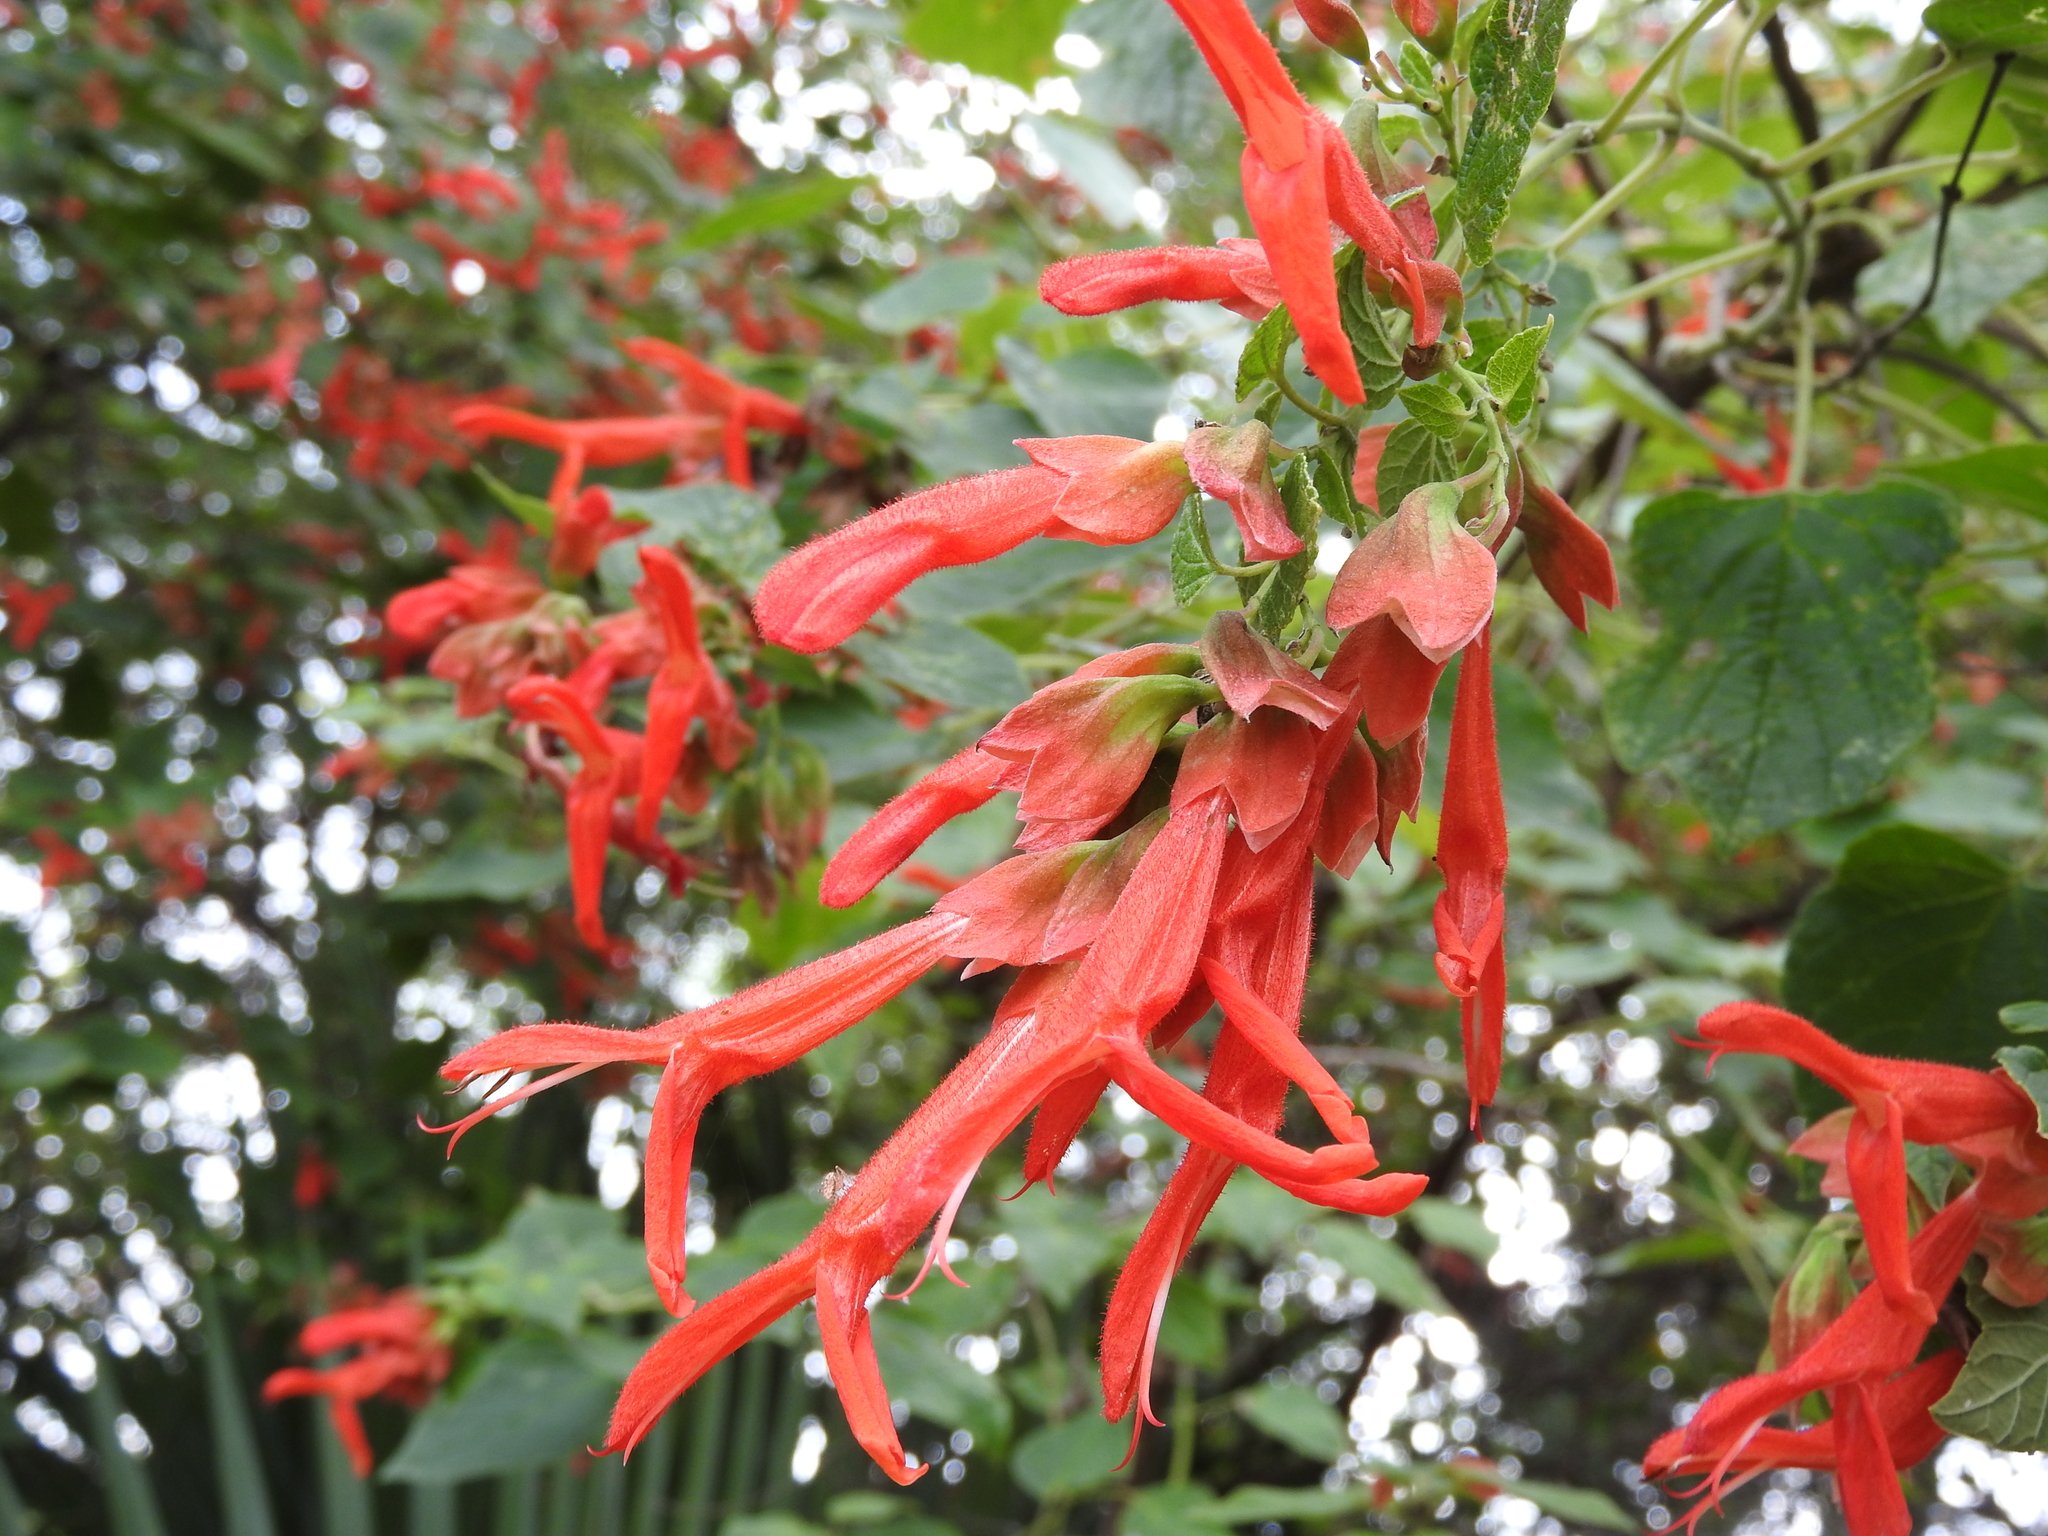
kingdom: Plantae
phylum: Tracheophyta
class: Magnoliopsida
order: Lamiales
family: Lamiaceae
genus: Salvia
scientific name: Salvia pubescens
